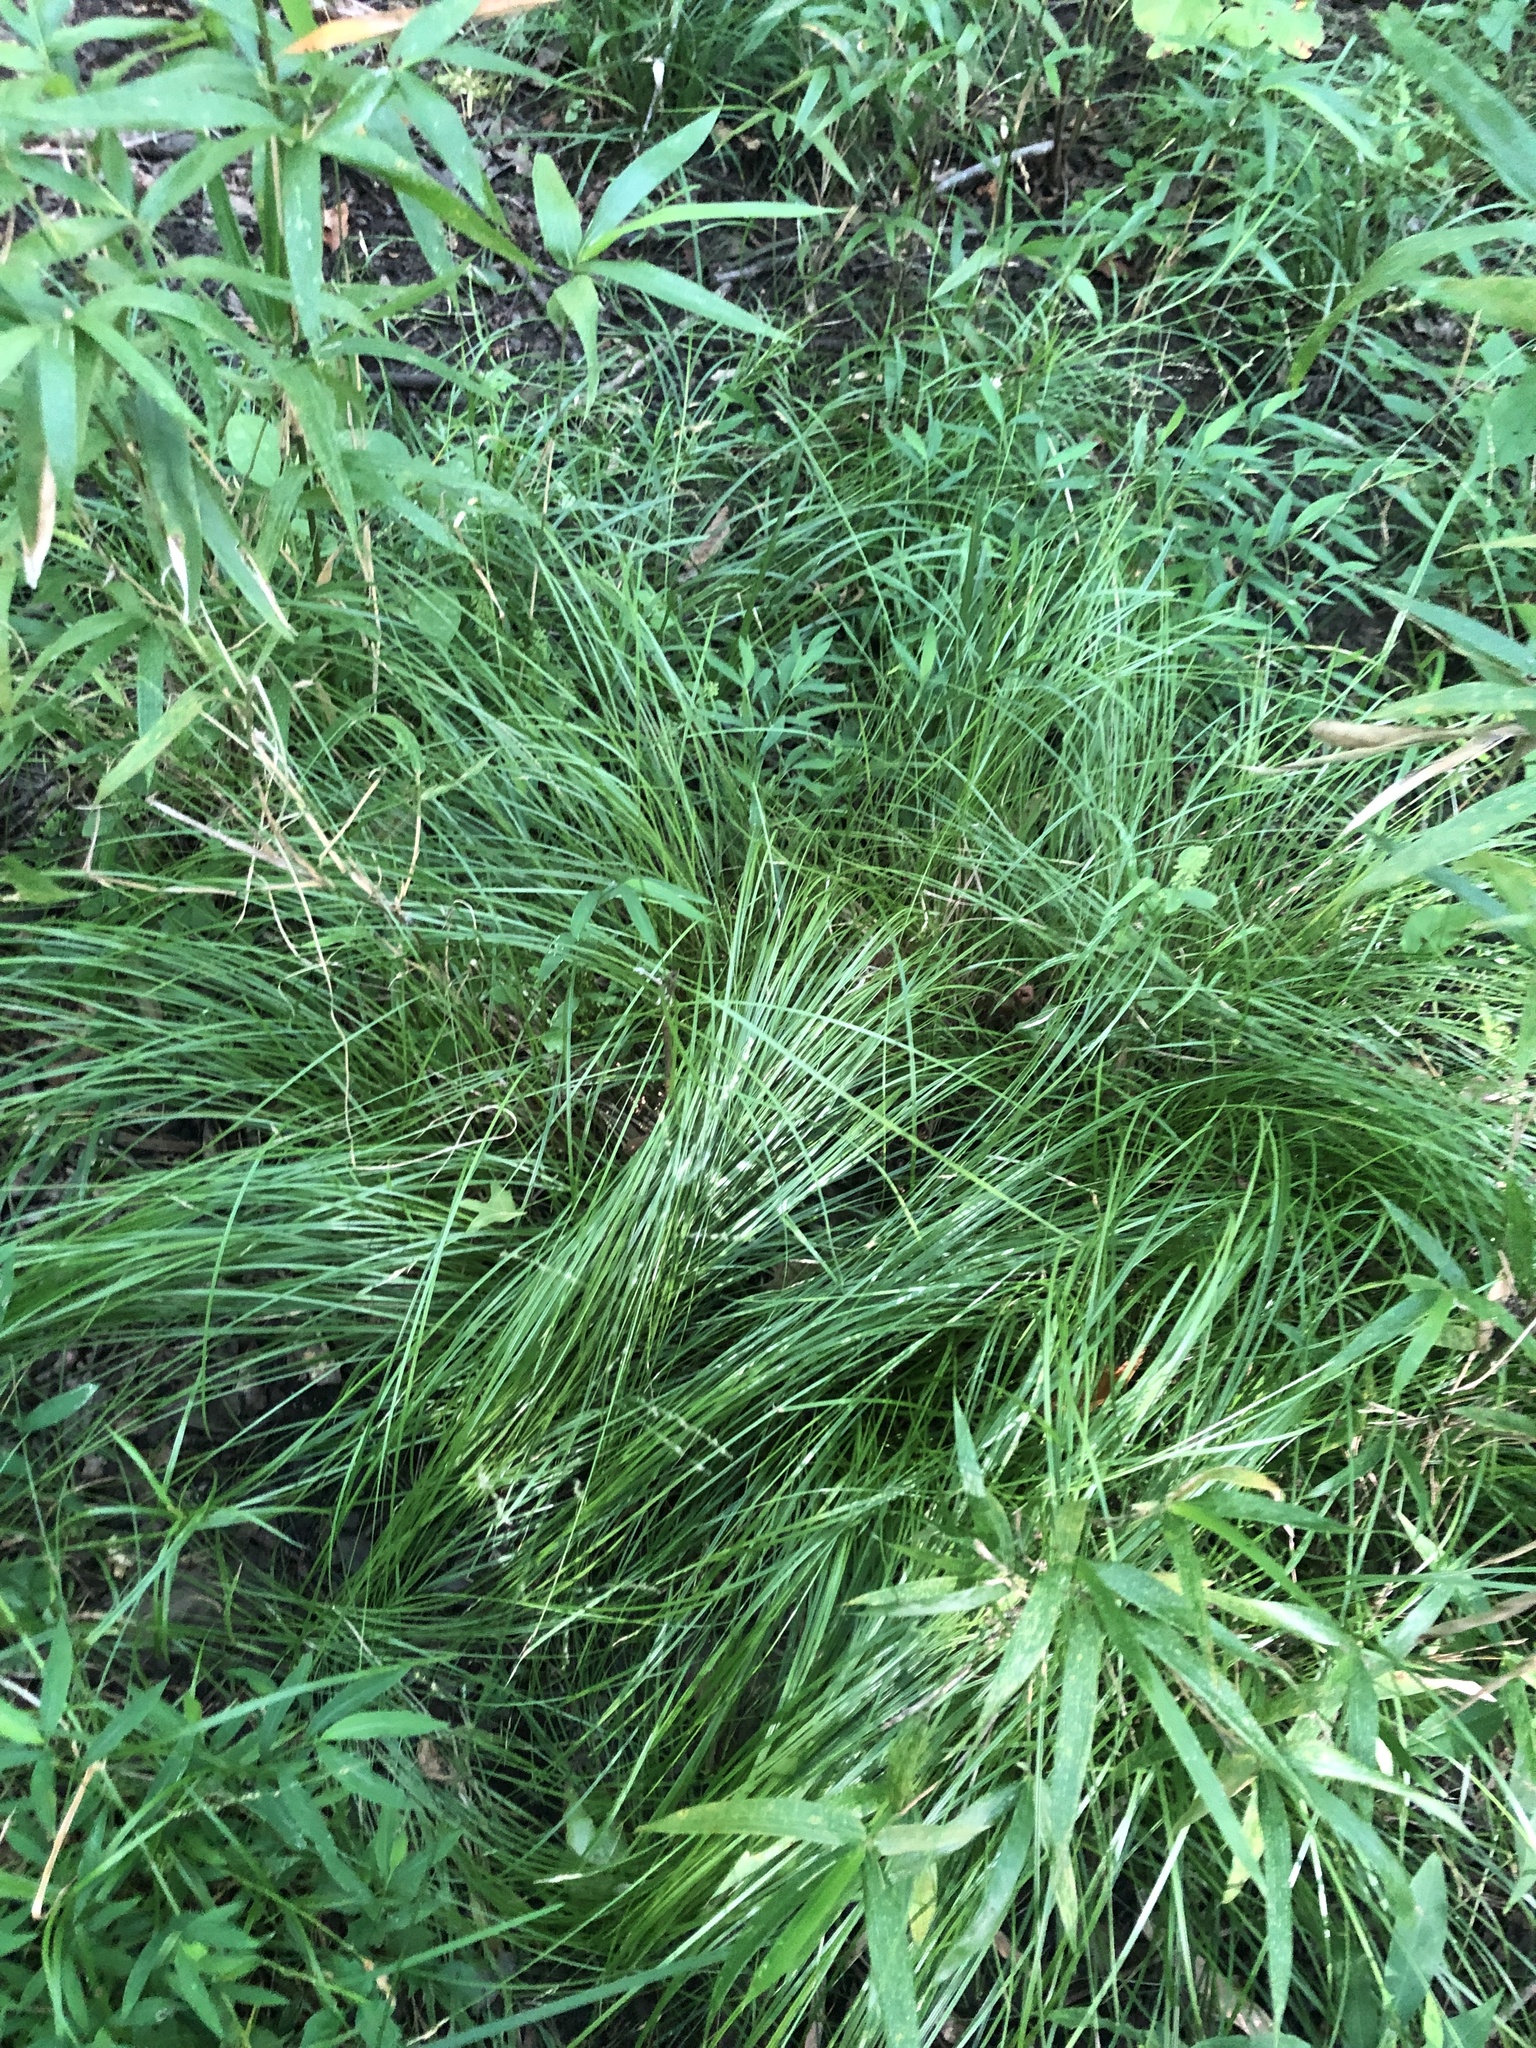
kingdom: Plantae
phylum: Tracheophyta
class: Liliopsida
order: Poales
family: Cyperaceae
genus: Carex
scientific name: Carex socialis
